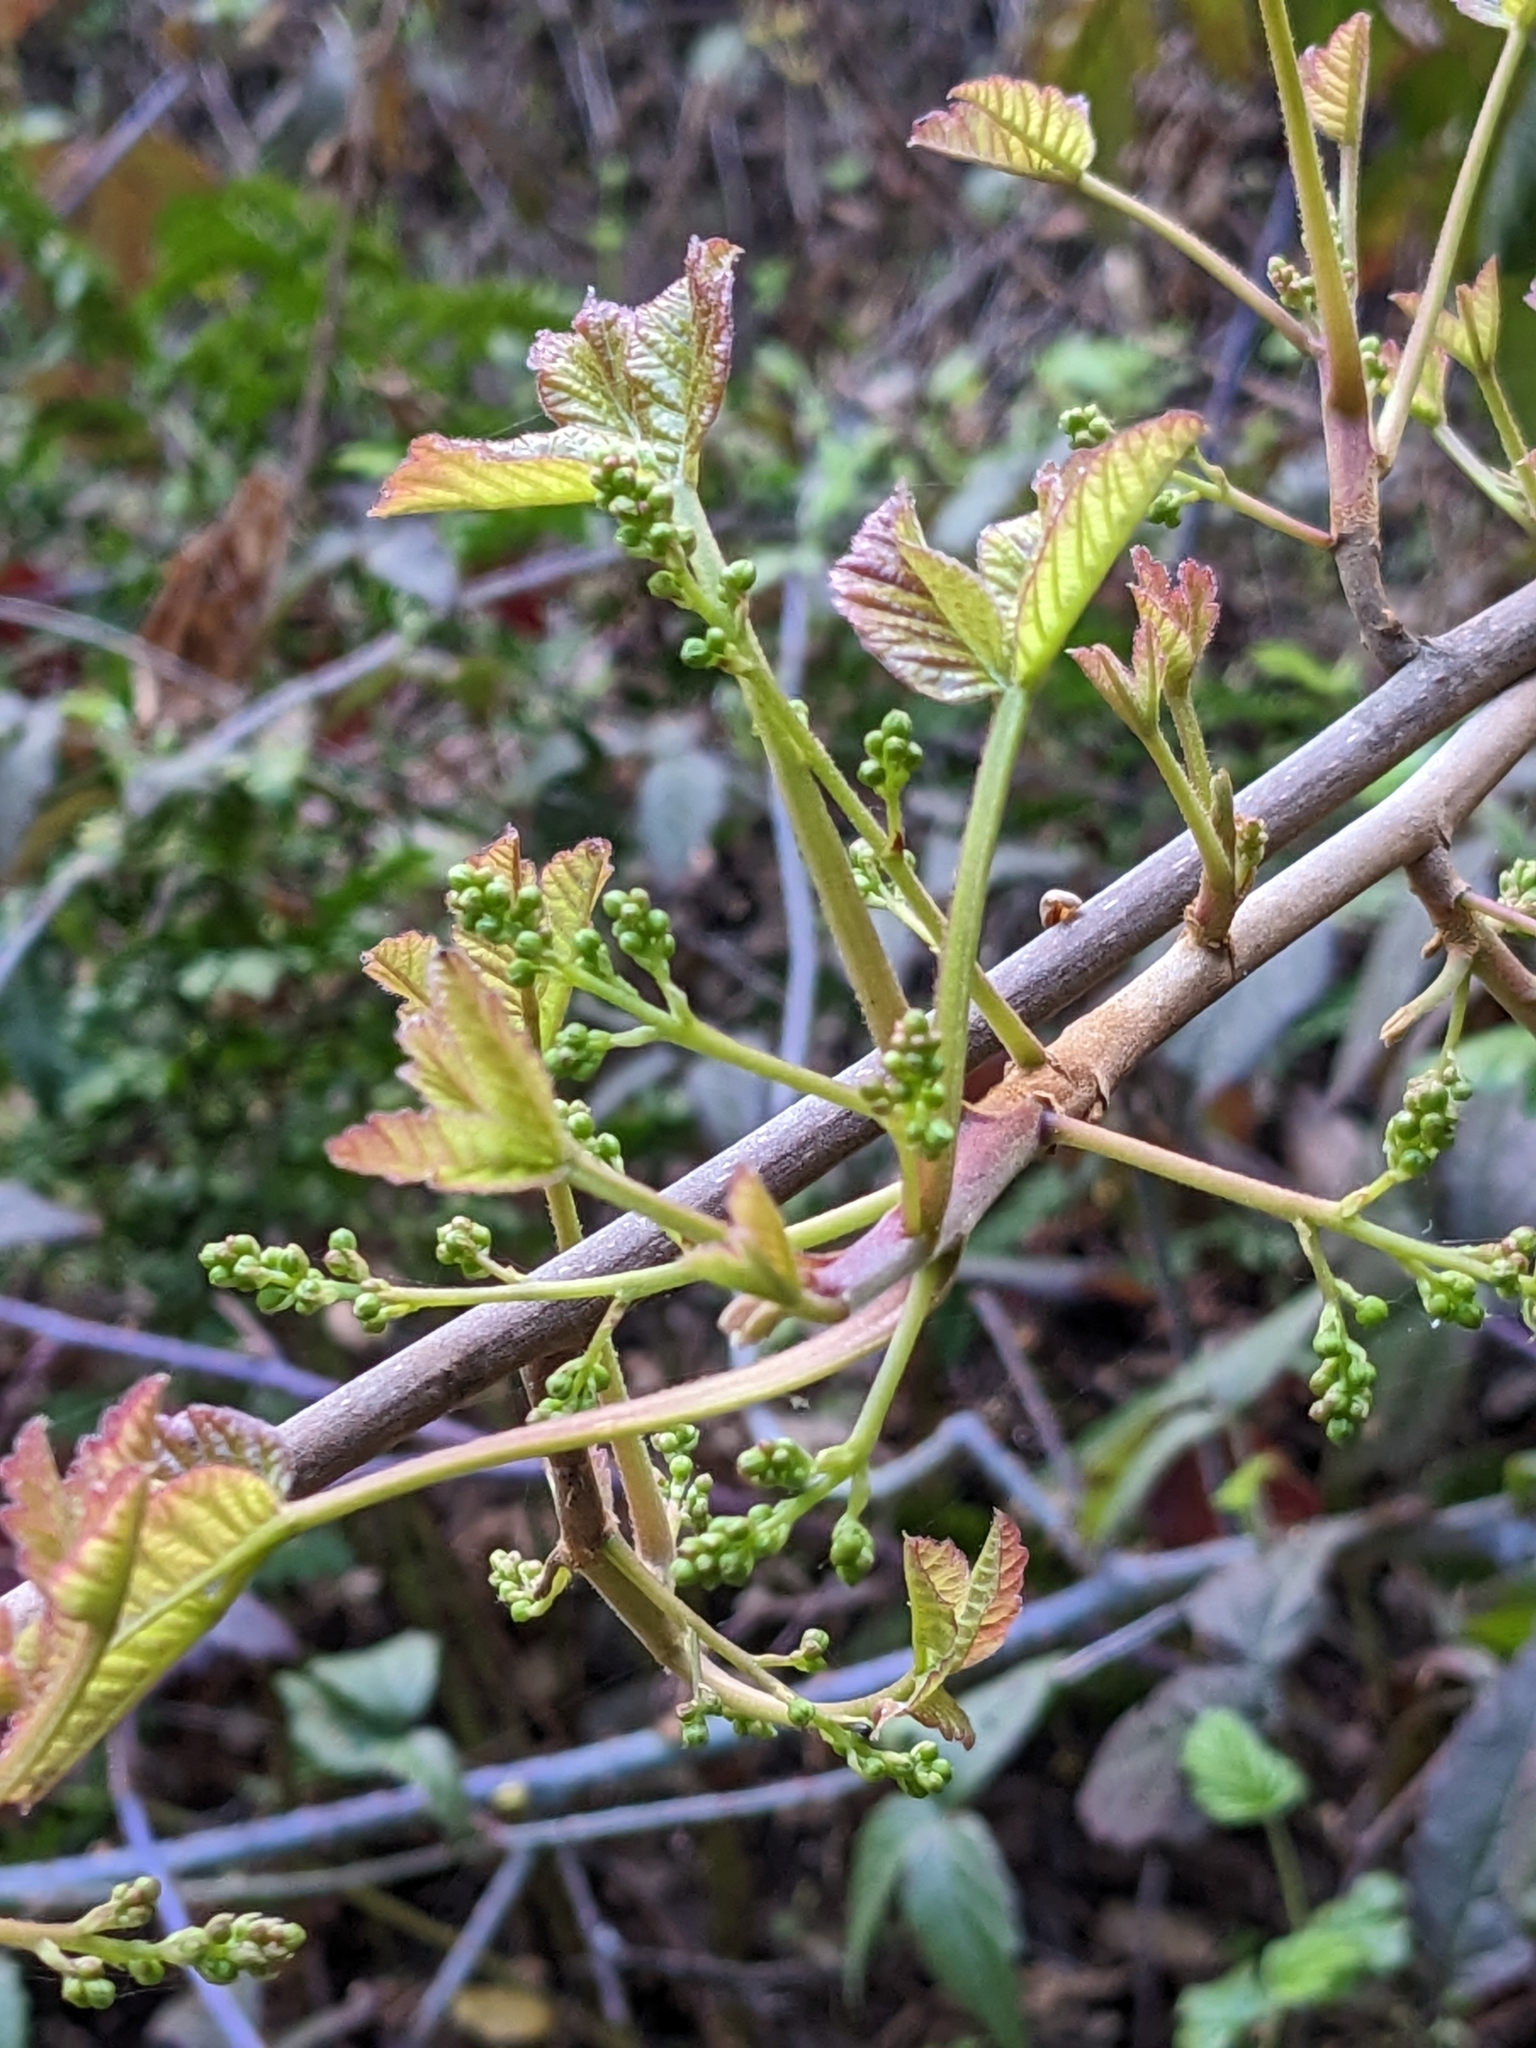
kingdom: Plantae
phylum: Tracheophyta
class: Magnoliopsida
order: Sapindales
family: Anacardiaceae
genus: Toxicodendron
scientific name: Toxicodendron diversilobum
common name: Pacific poison-oak
